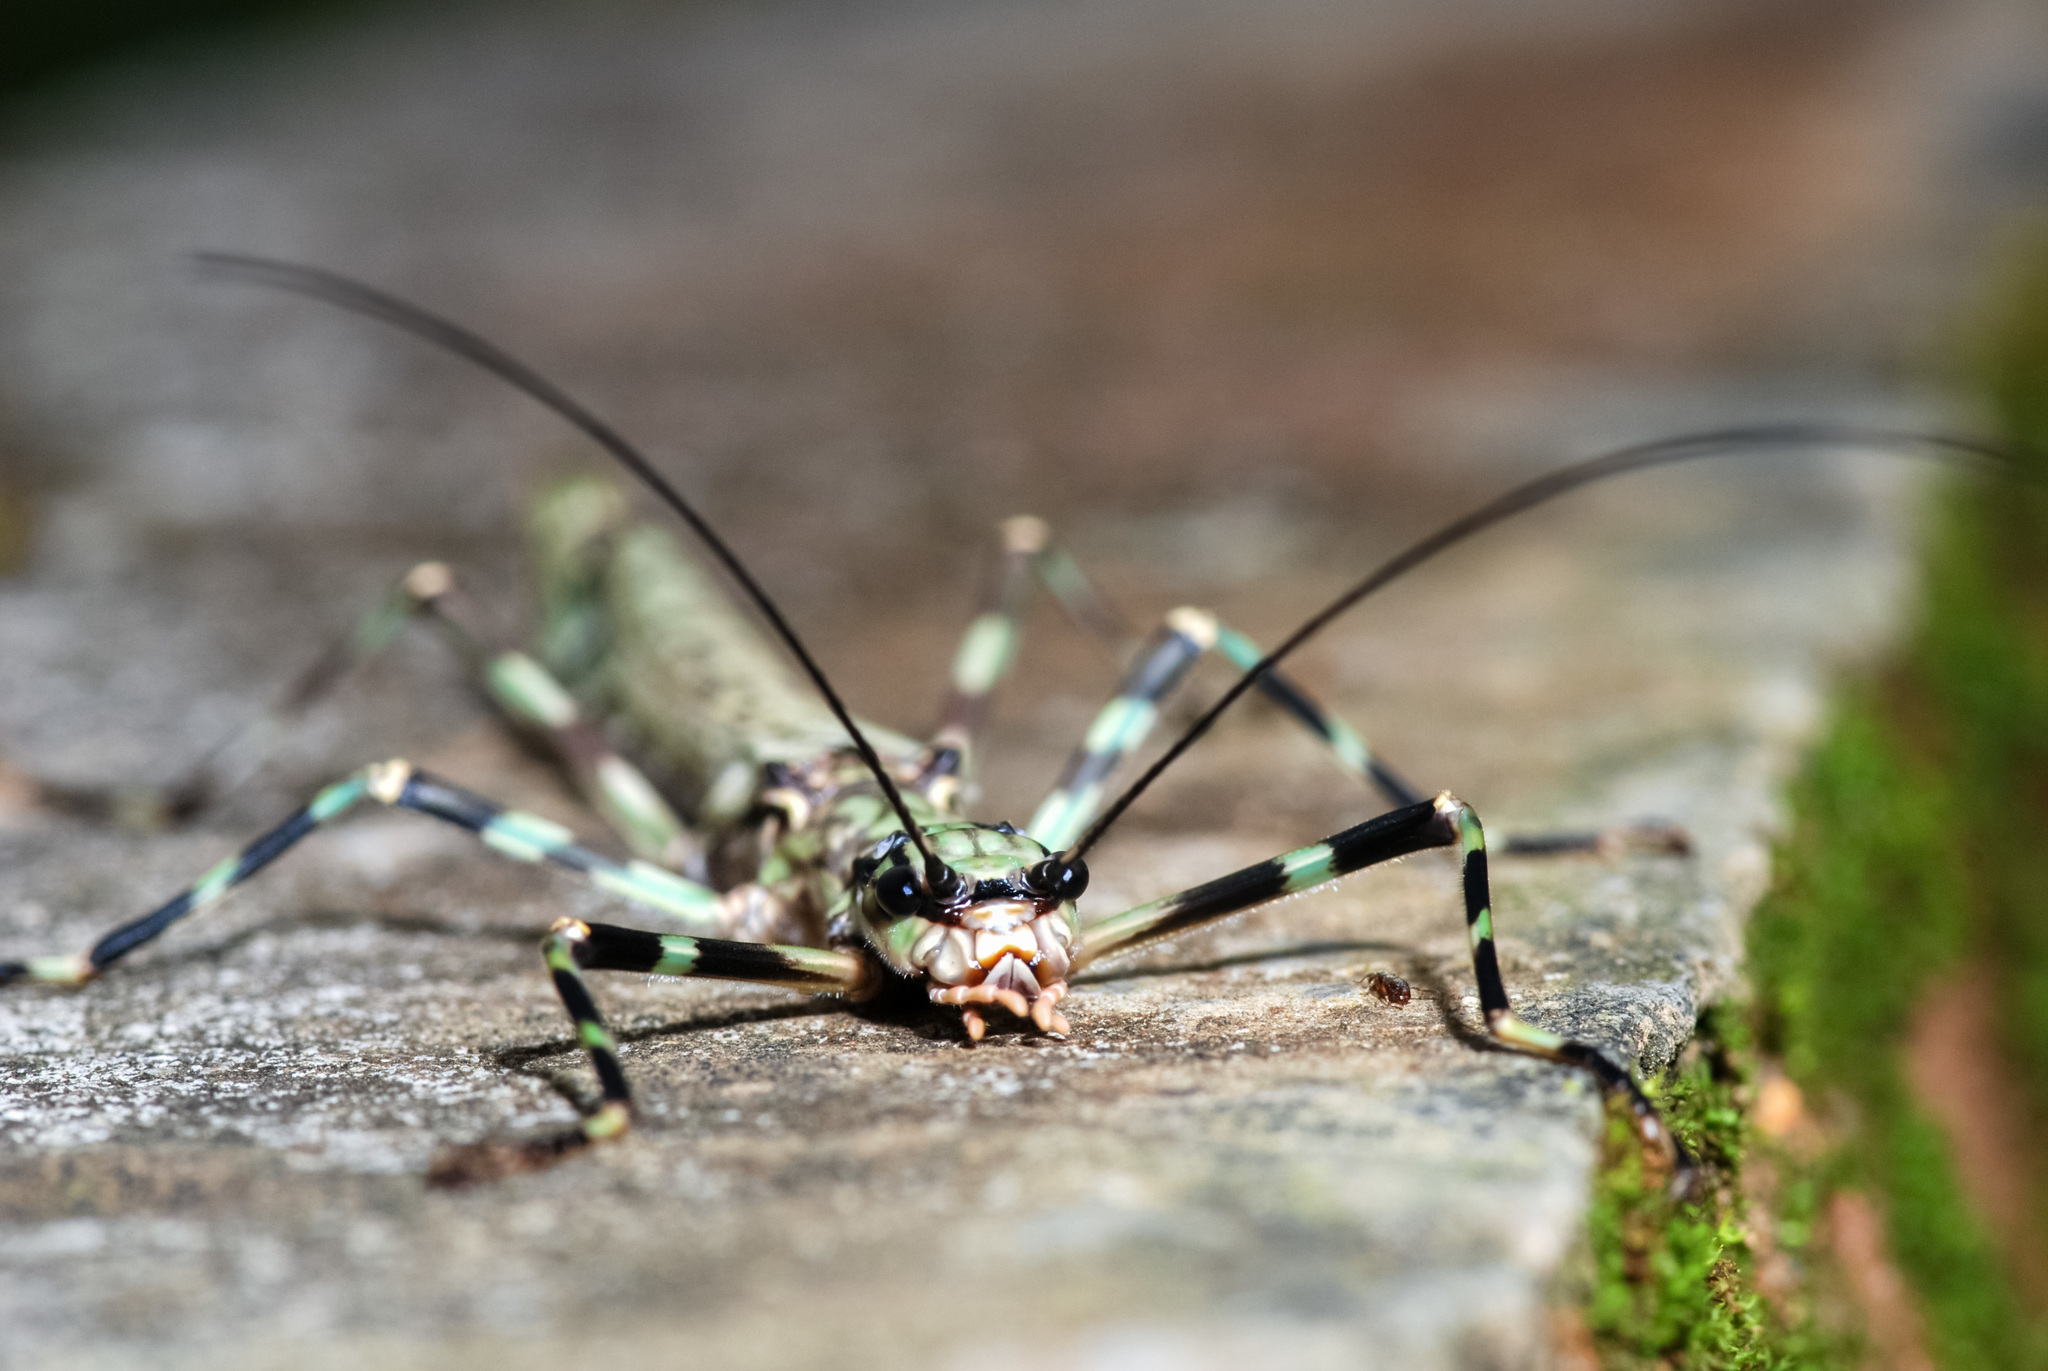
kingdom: Animalia
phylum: Arthropoda
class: Insecta
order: Phasmida
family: Aschiphasmatidae
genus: Aschiphasma
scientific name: Aschiphasma annulipes
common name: Black and green phasma
